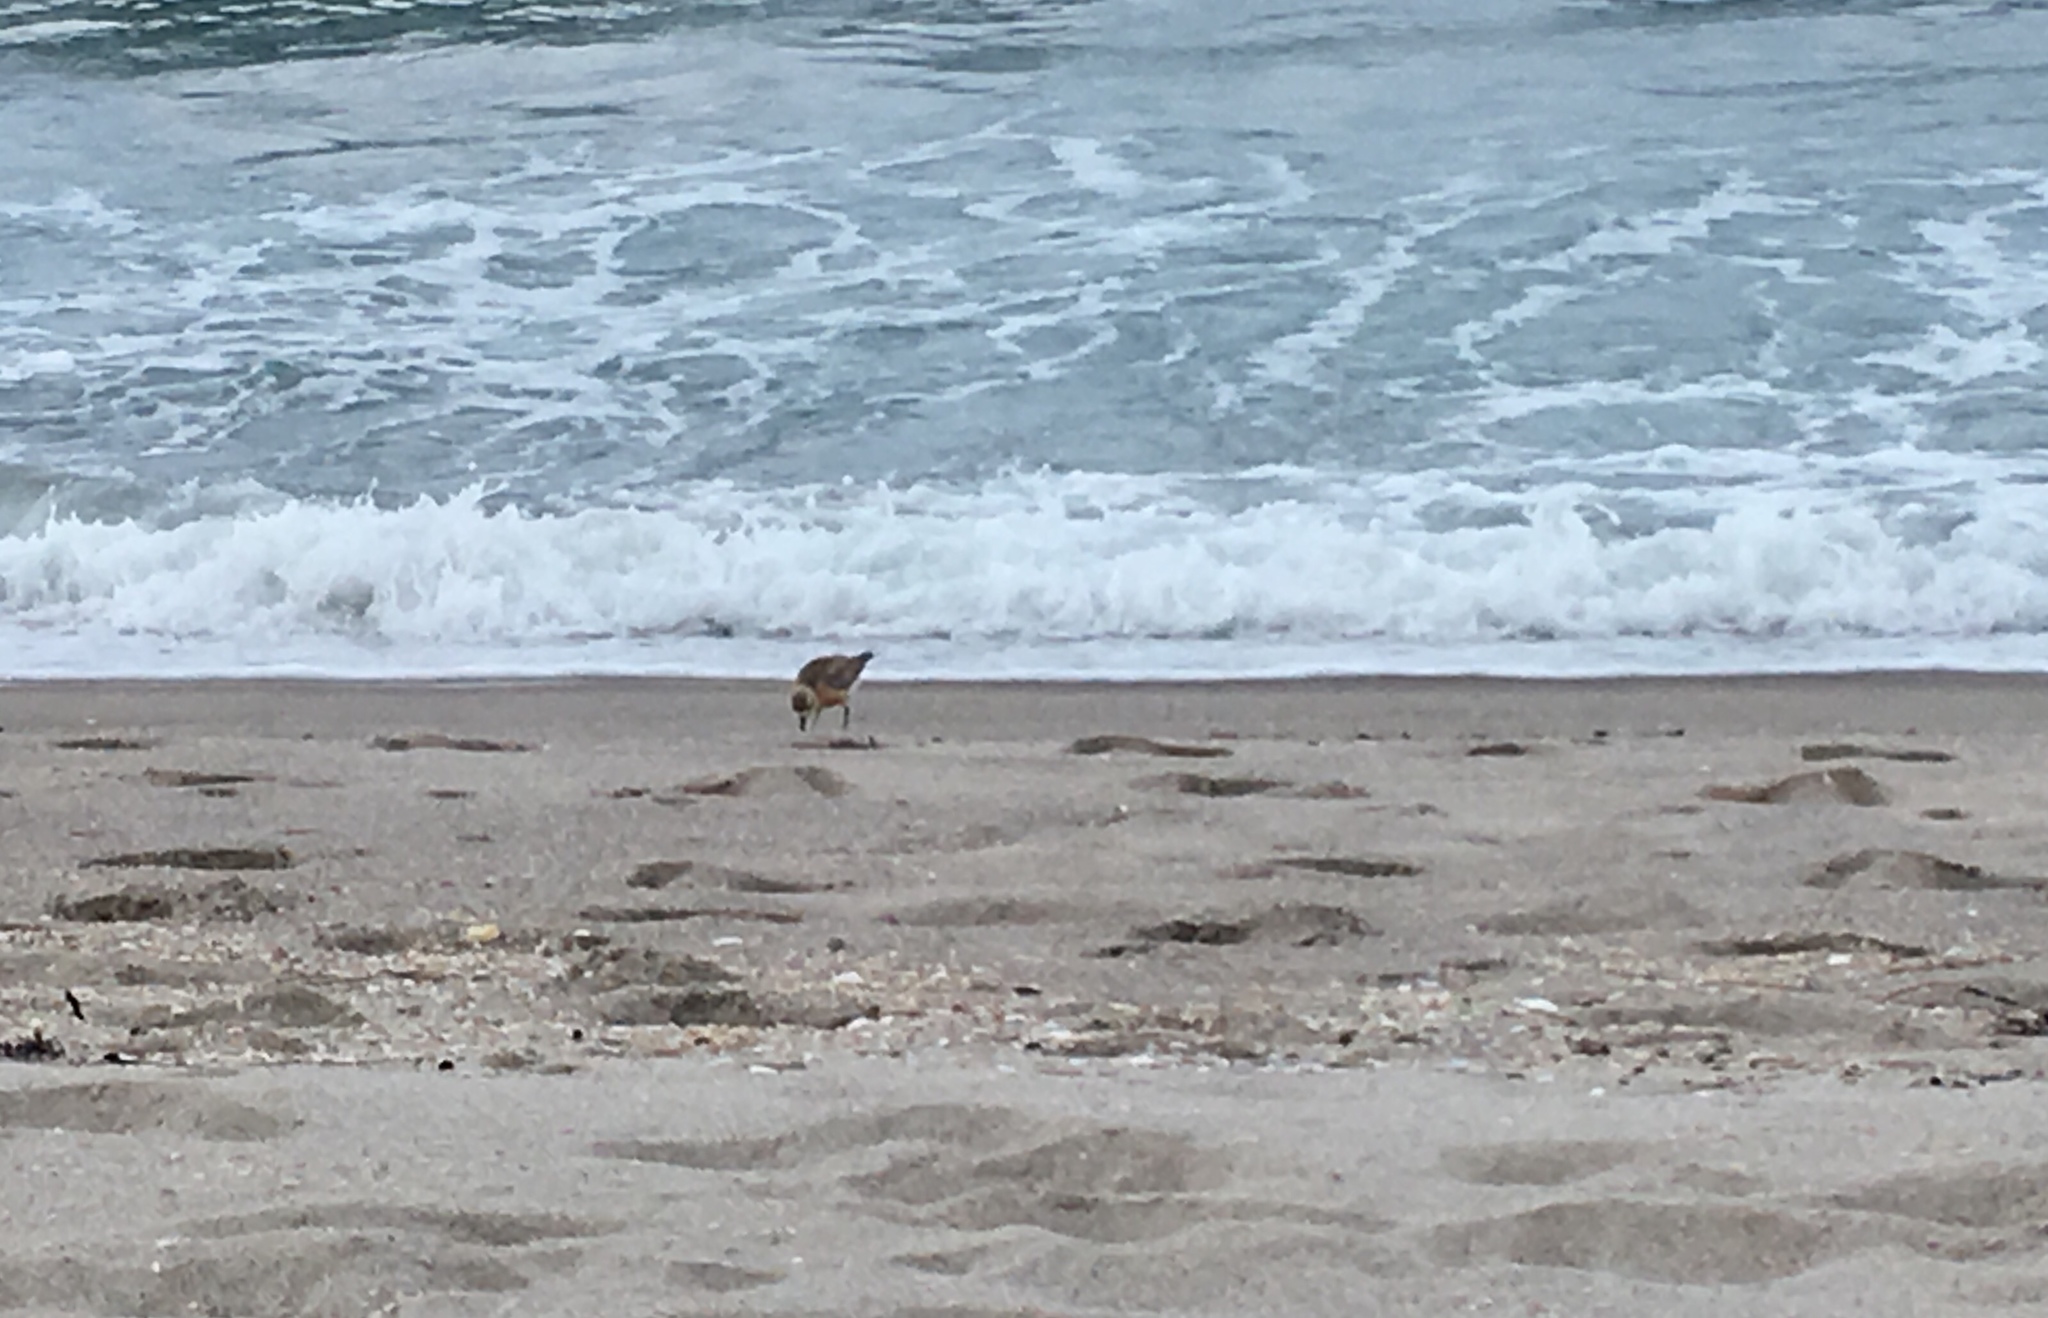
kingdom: Animalia
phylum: Chordata
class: Aves
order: Charadriiformes
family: Charadriidae
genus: Anarhynchus
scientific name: Anarhynchus
